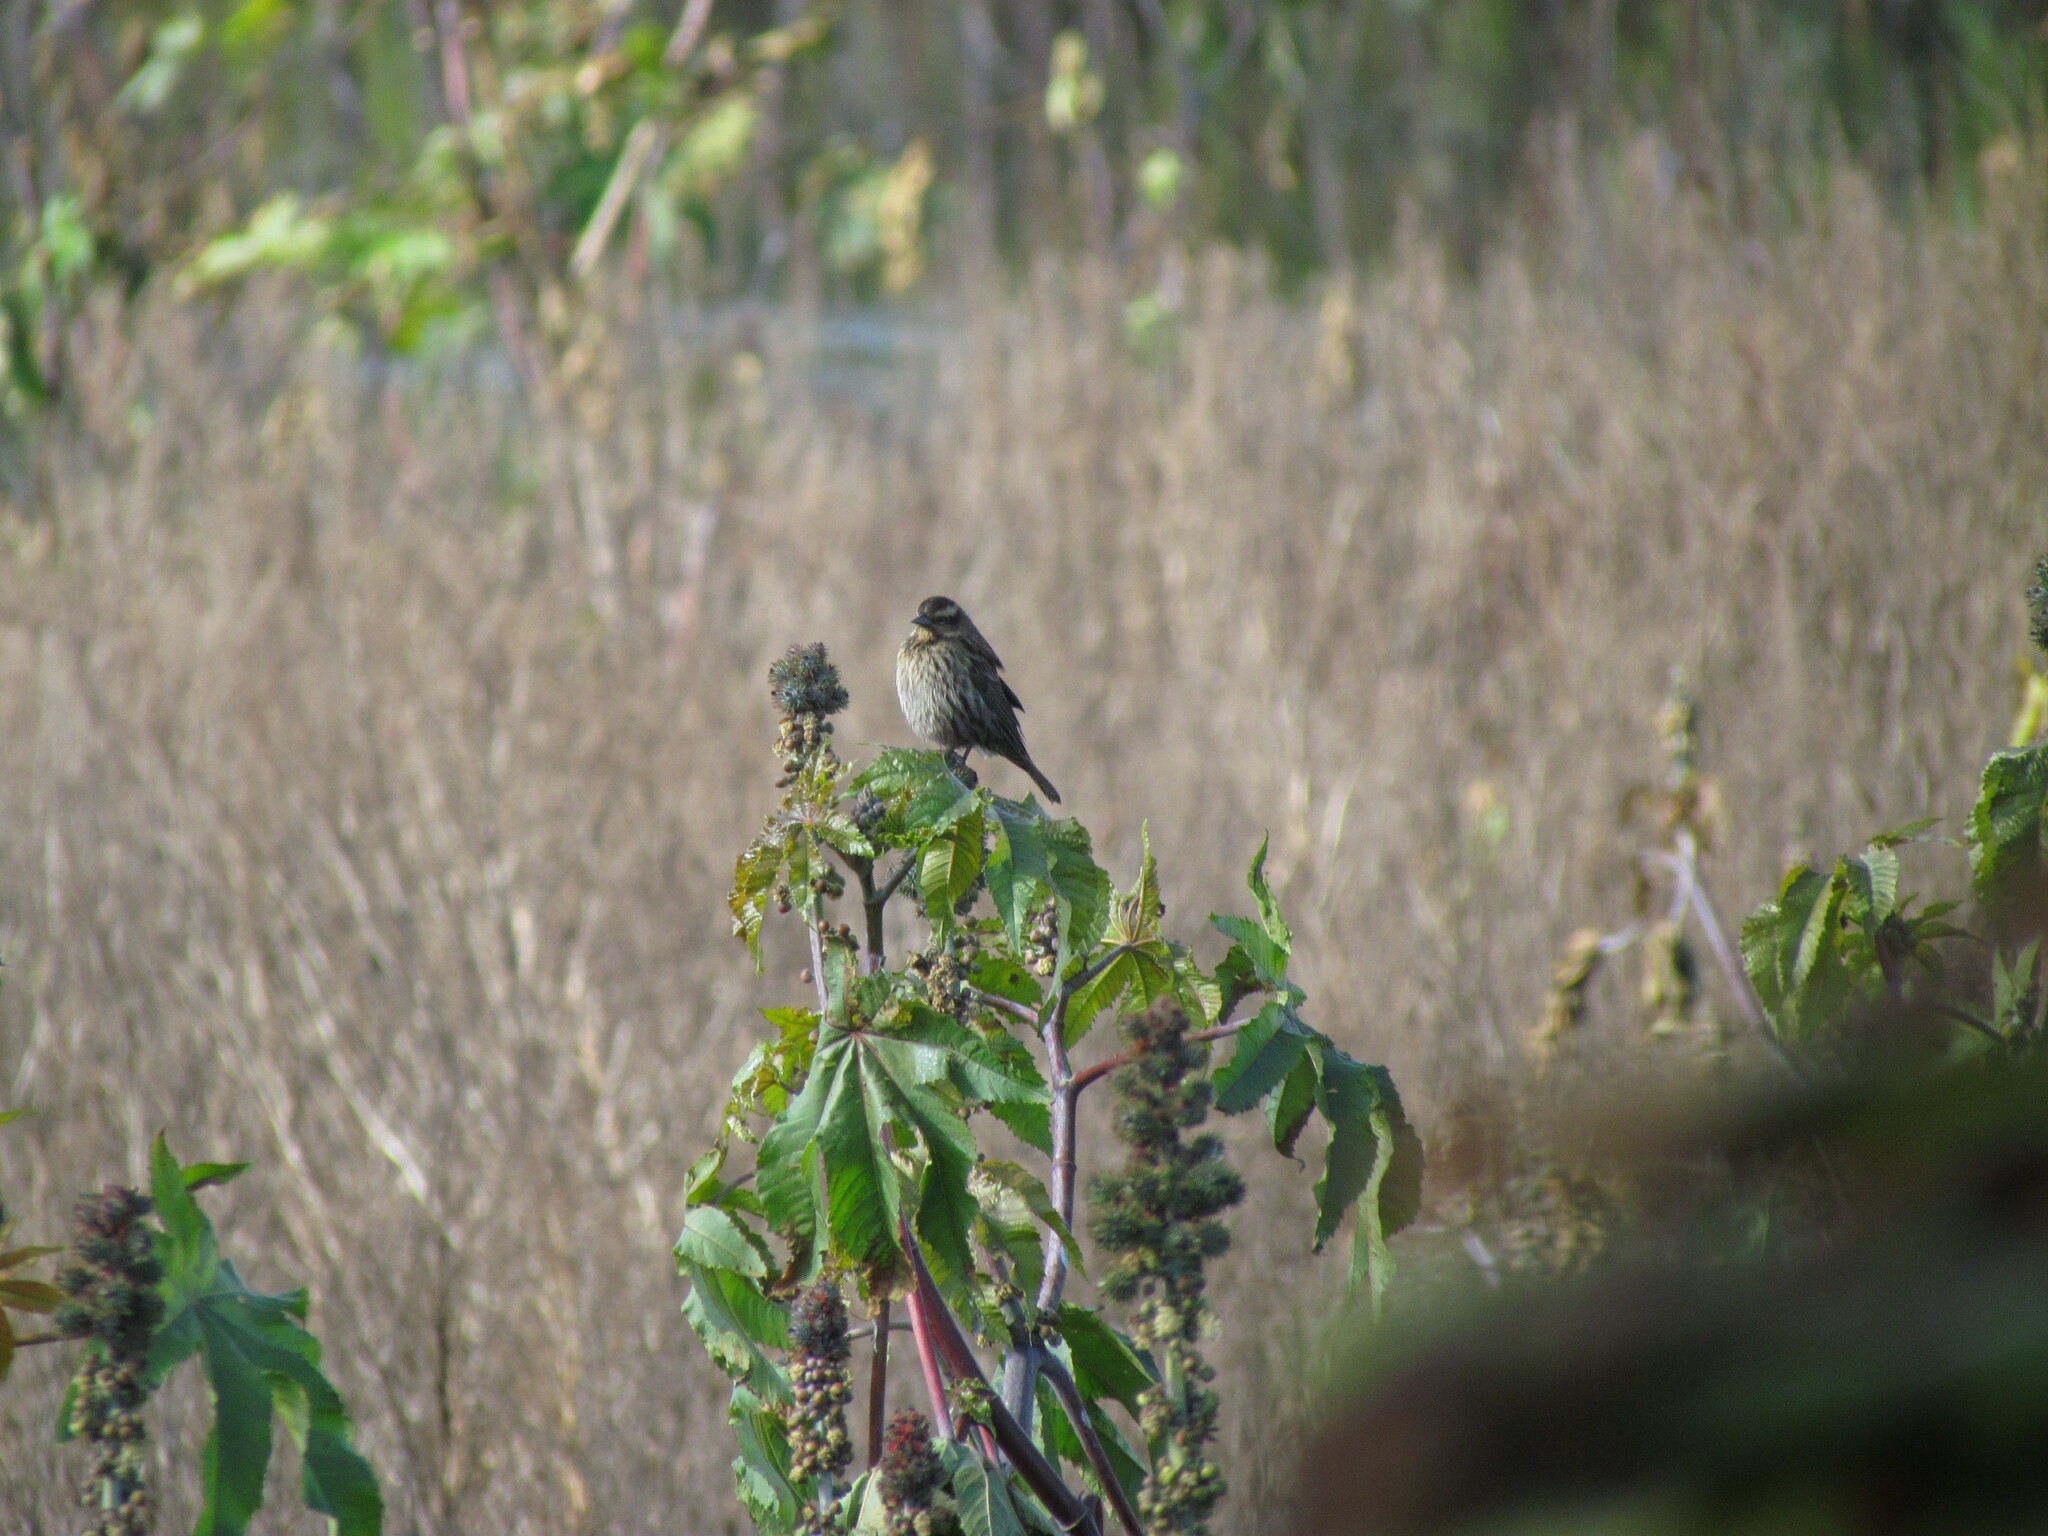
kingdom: Animalia
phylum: Chordata
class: Aves
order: Passeriformes
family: Icteridae
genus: Agelasticus
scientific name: Agelasticus thilius
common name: Yellow-winged blackbird
